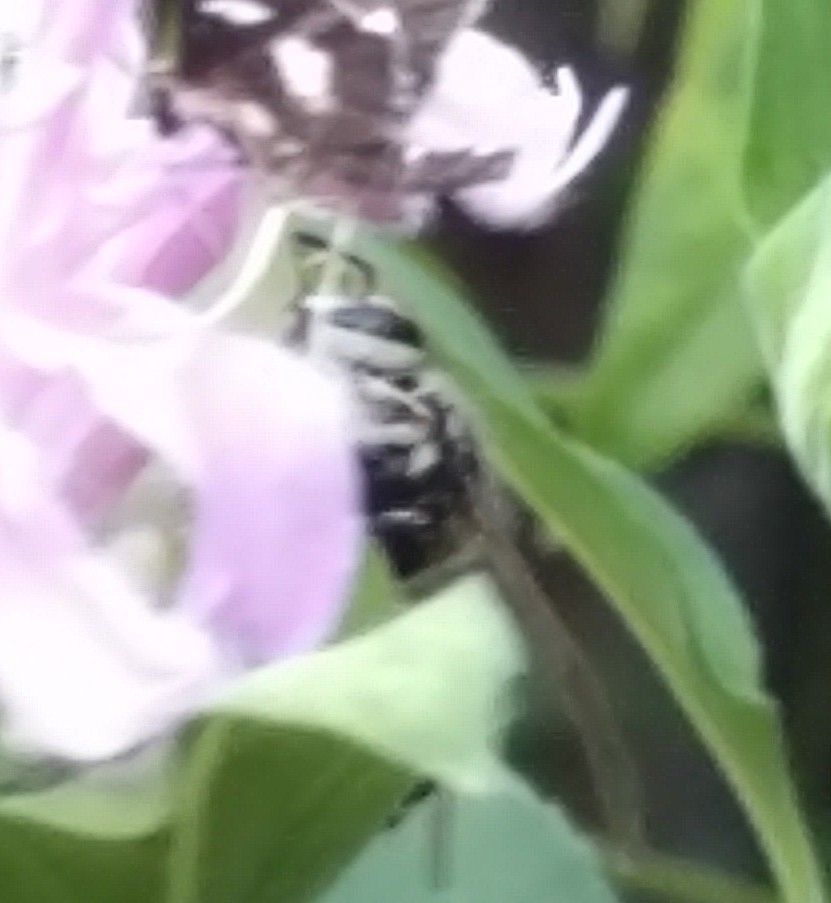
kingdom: Animalia
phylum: Arthropoda
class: Insecta
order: Hymenoptera
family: Vespidae
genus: Dolichovespula
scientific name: Dolichovespula maculata
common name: Bald-faced hornet
